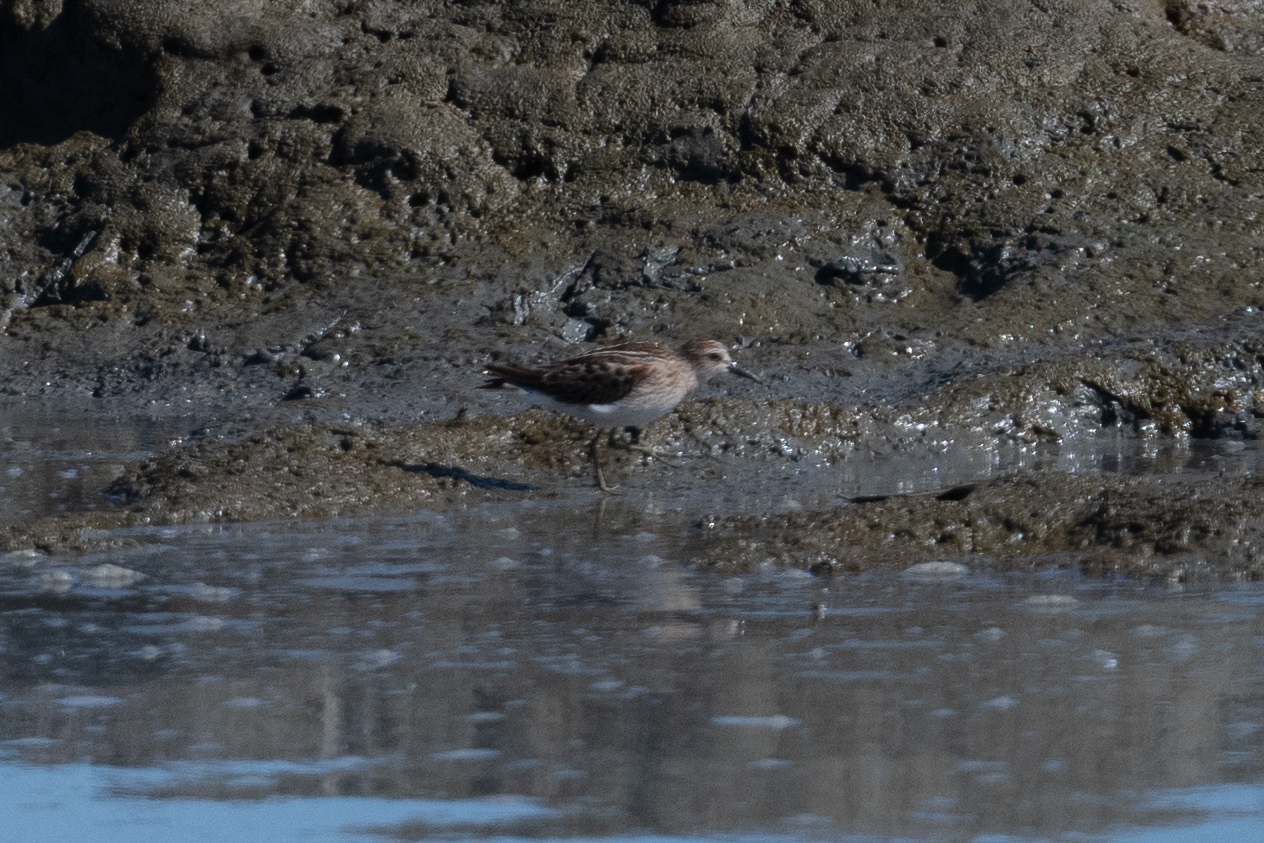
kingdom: Animalia
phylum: Chordata
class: Aves
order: Charadriiformes
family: Scolopacidae
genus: Calidris
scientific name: Calidris minutilla
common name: Least sandpiper
